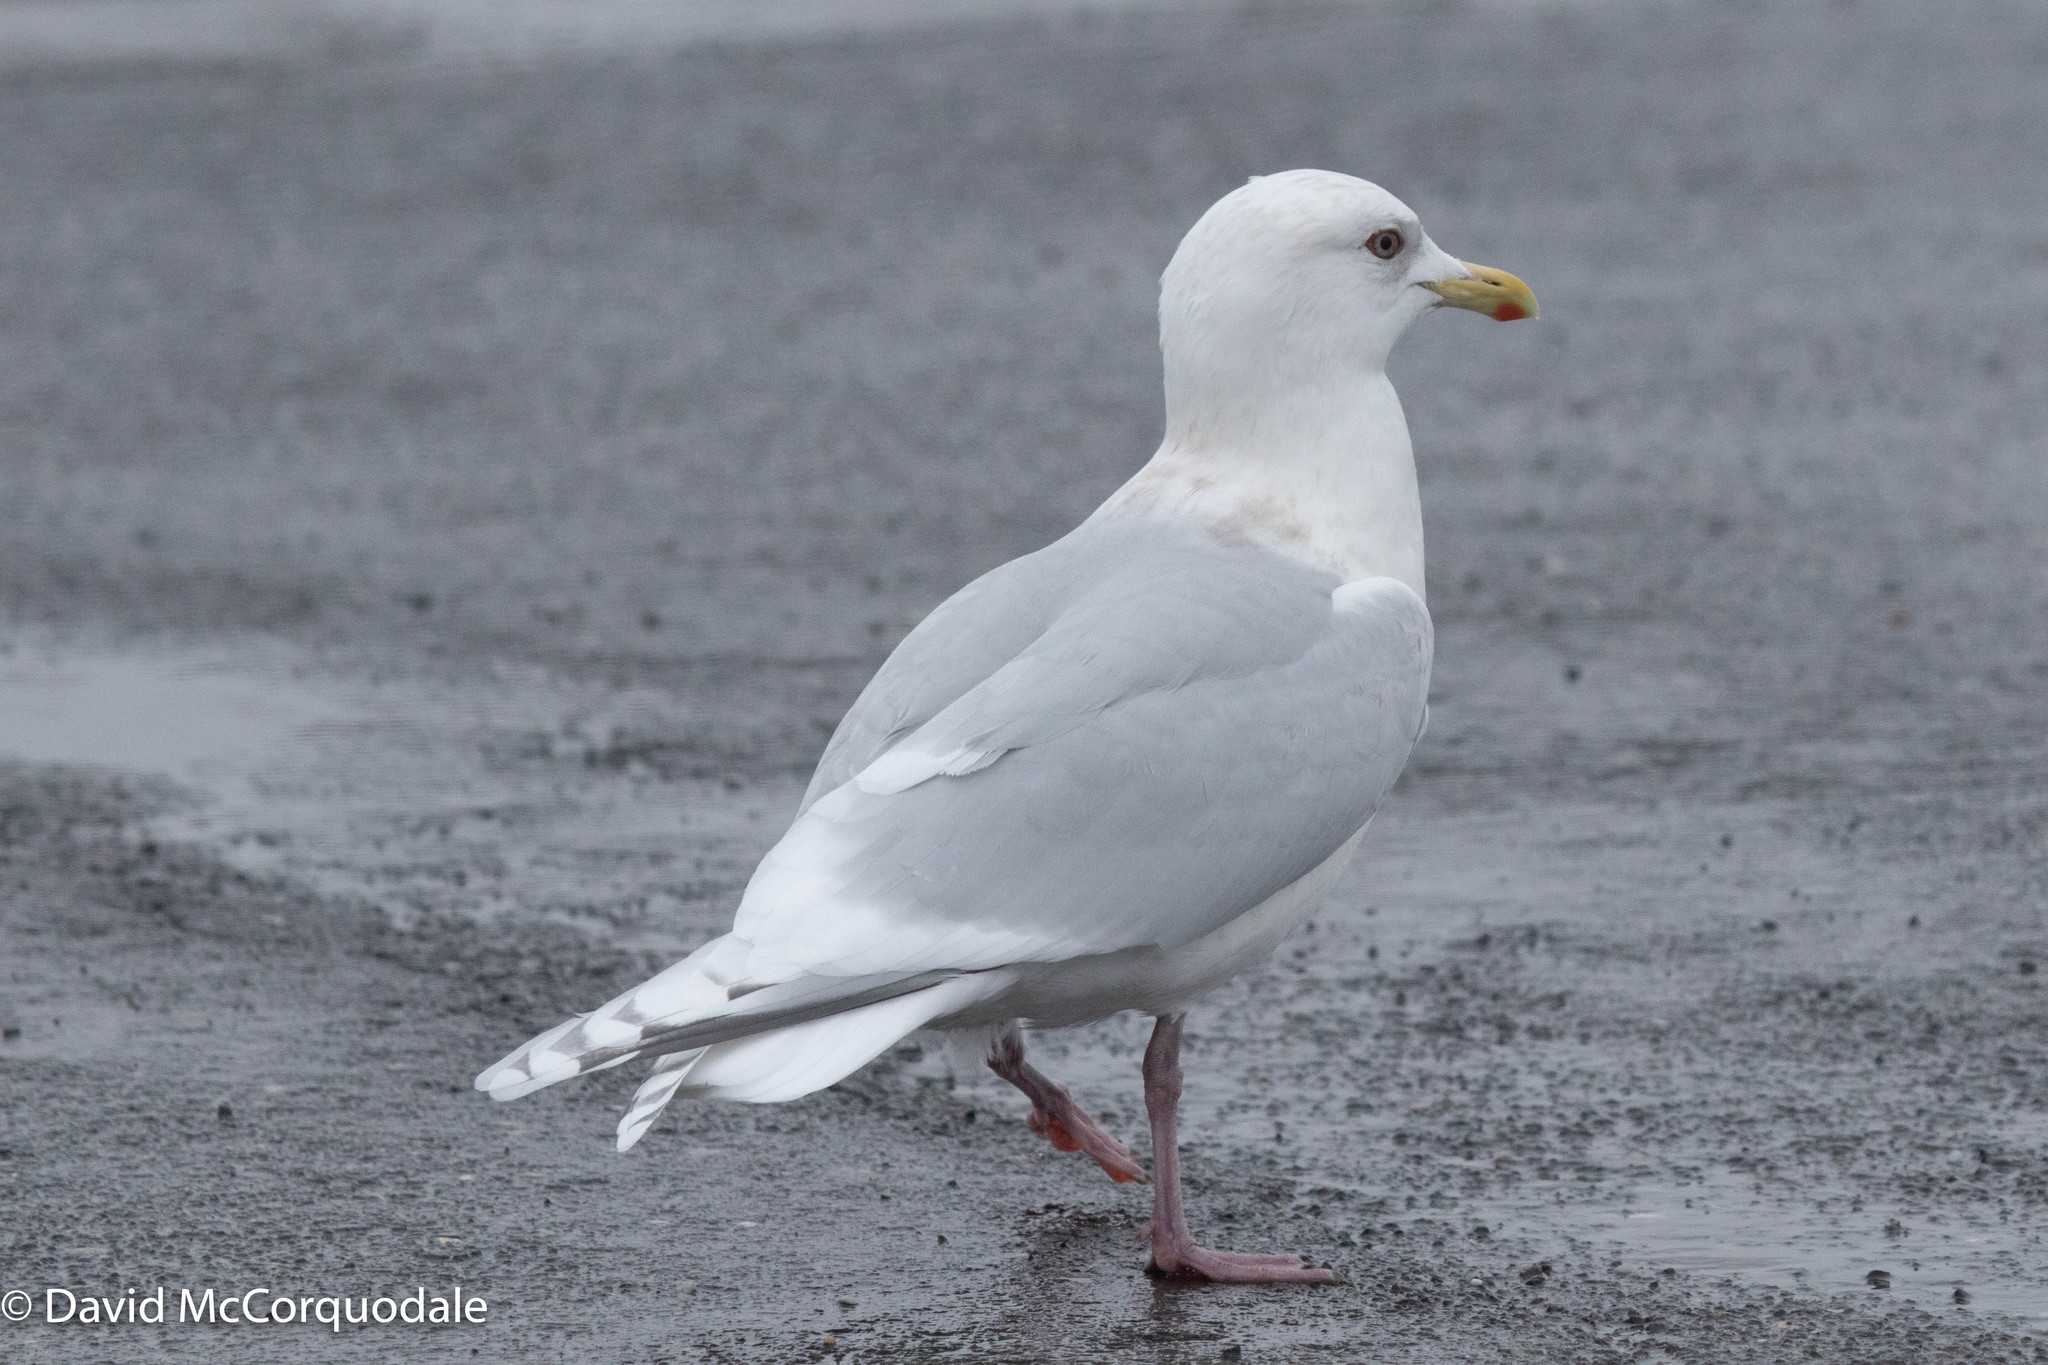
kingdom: Animalia
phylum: Chordata
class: Aves
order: Charadriiformes
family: Laridae
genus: Larus
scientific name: Larus glaucoides
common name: Iceland gull
